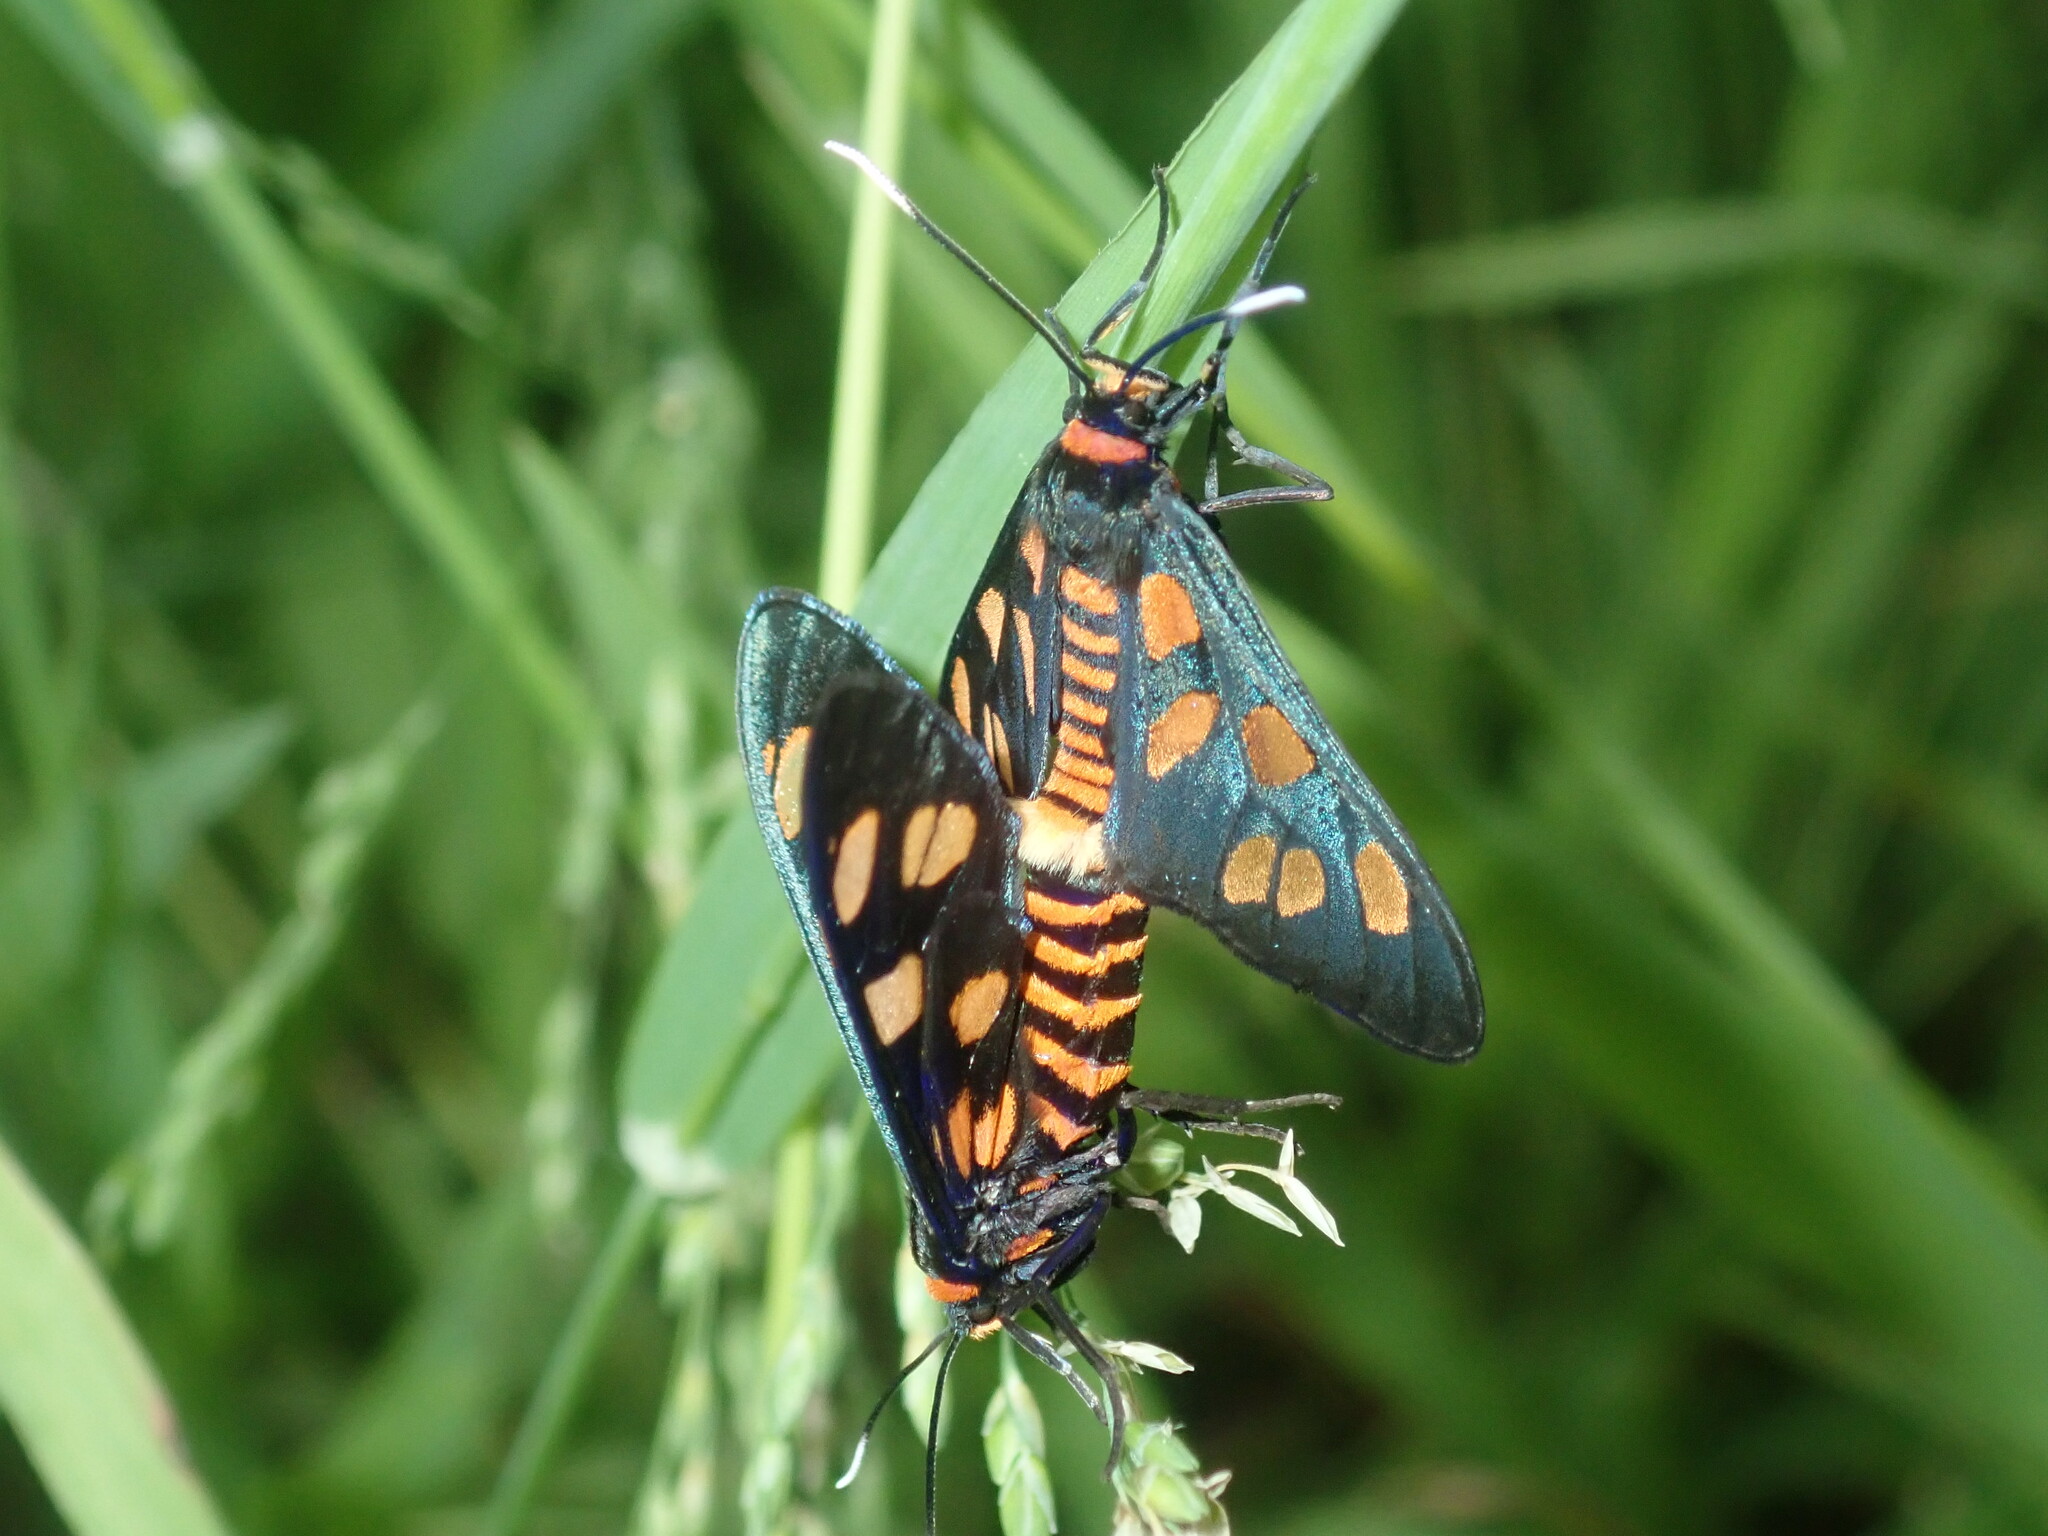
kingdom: Animalia
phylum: Arthropoda
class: Insecta
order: Lepidoptera
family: Erebidae
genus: Amata
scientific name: Amata nigriceps
